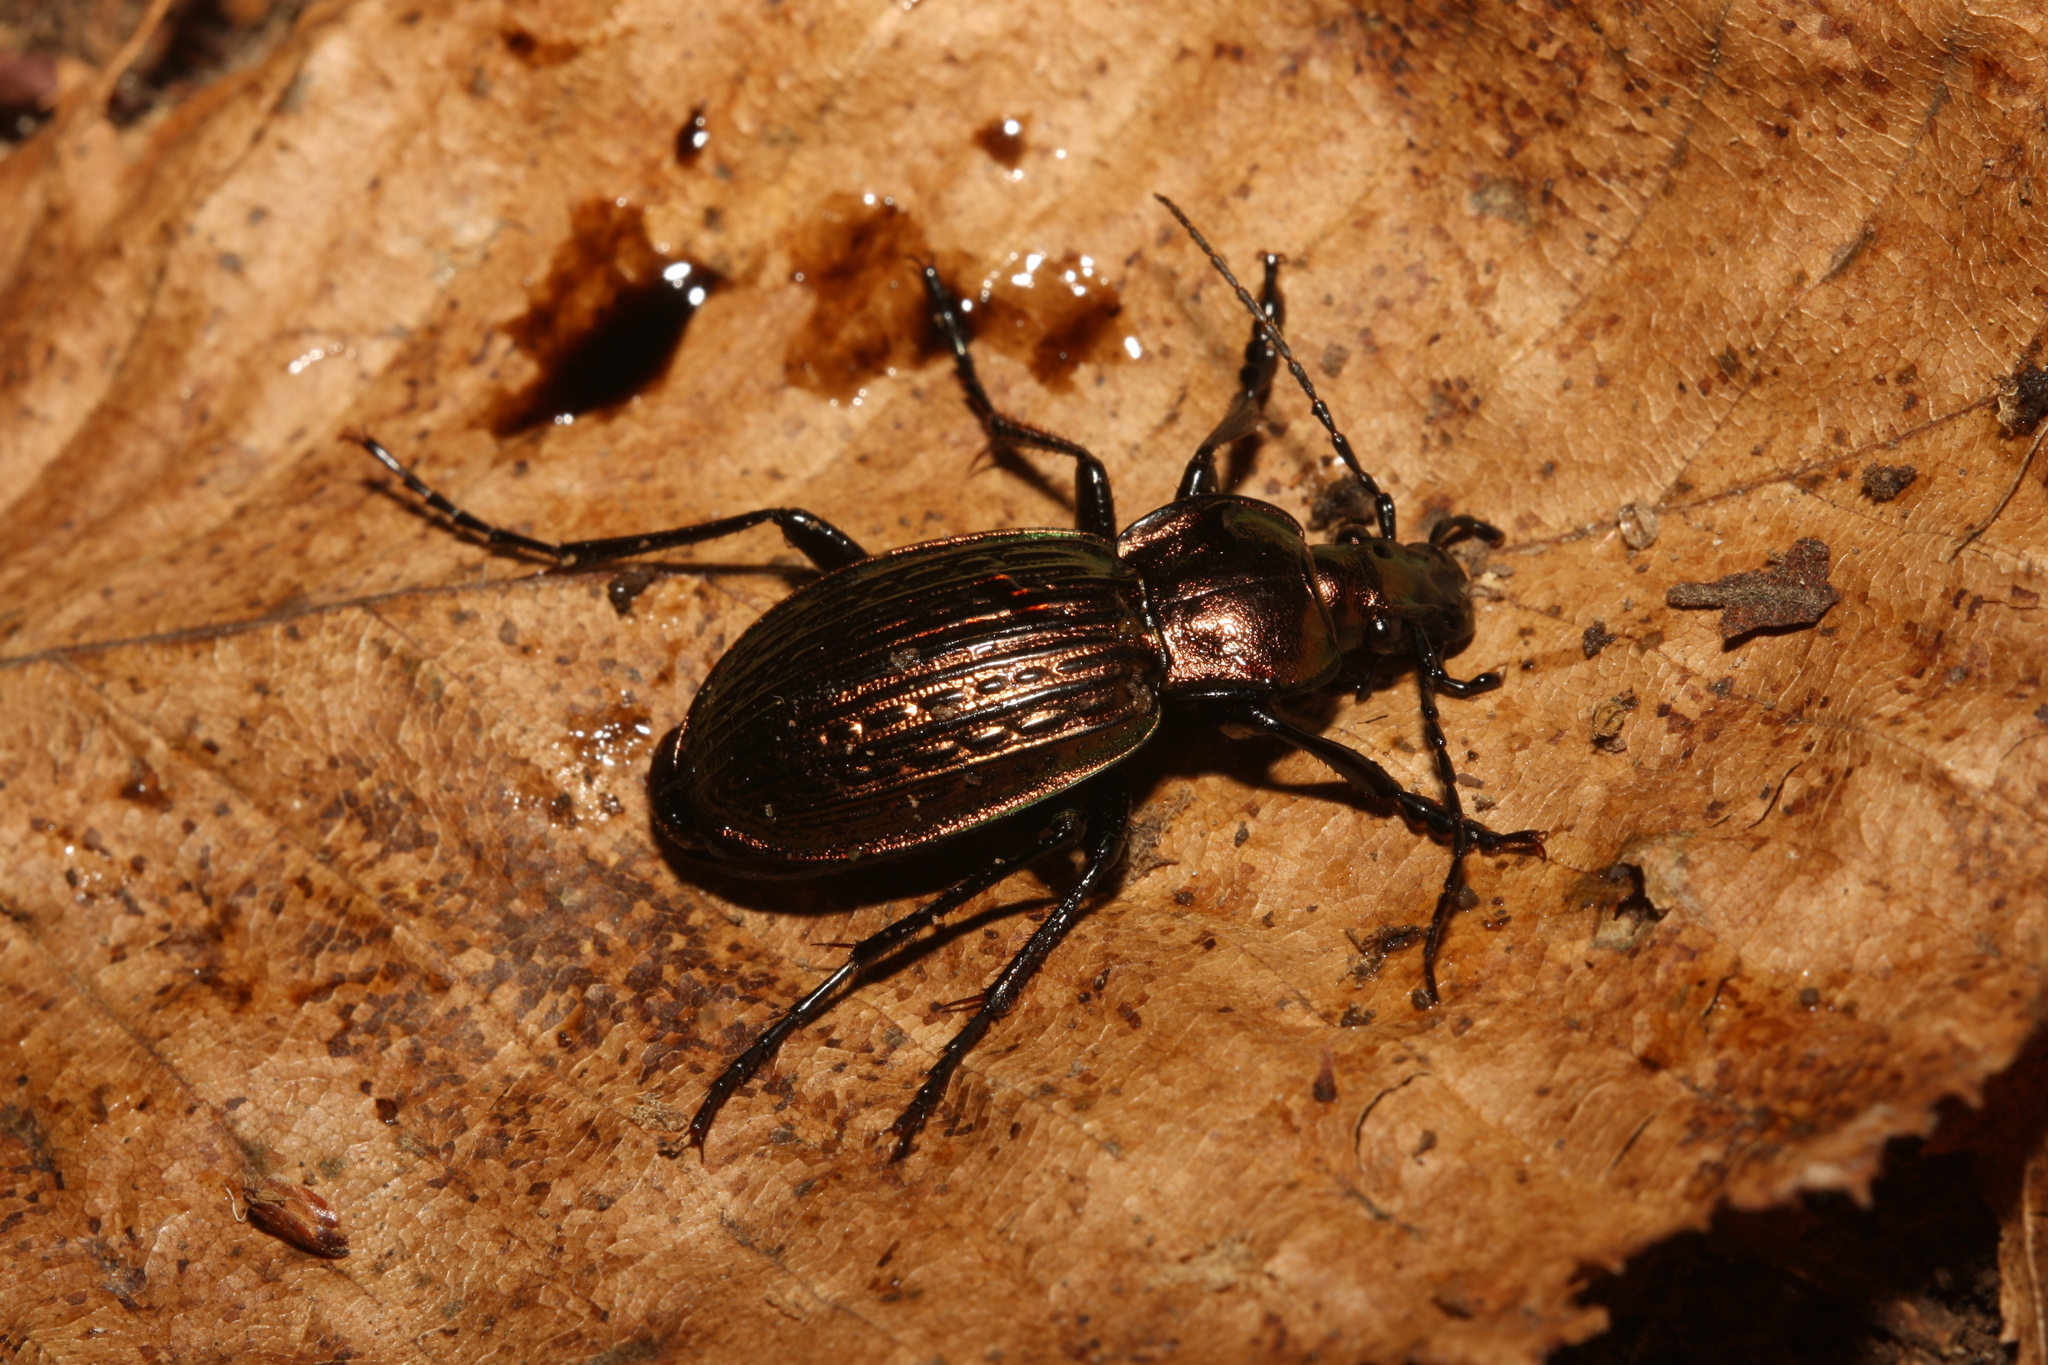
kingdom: Animalia
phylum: Arthropoda
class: Insecta
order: Coleoptera
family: Carabidae
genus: Carabus
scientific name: Carabus ulrichii
